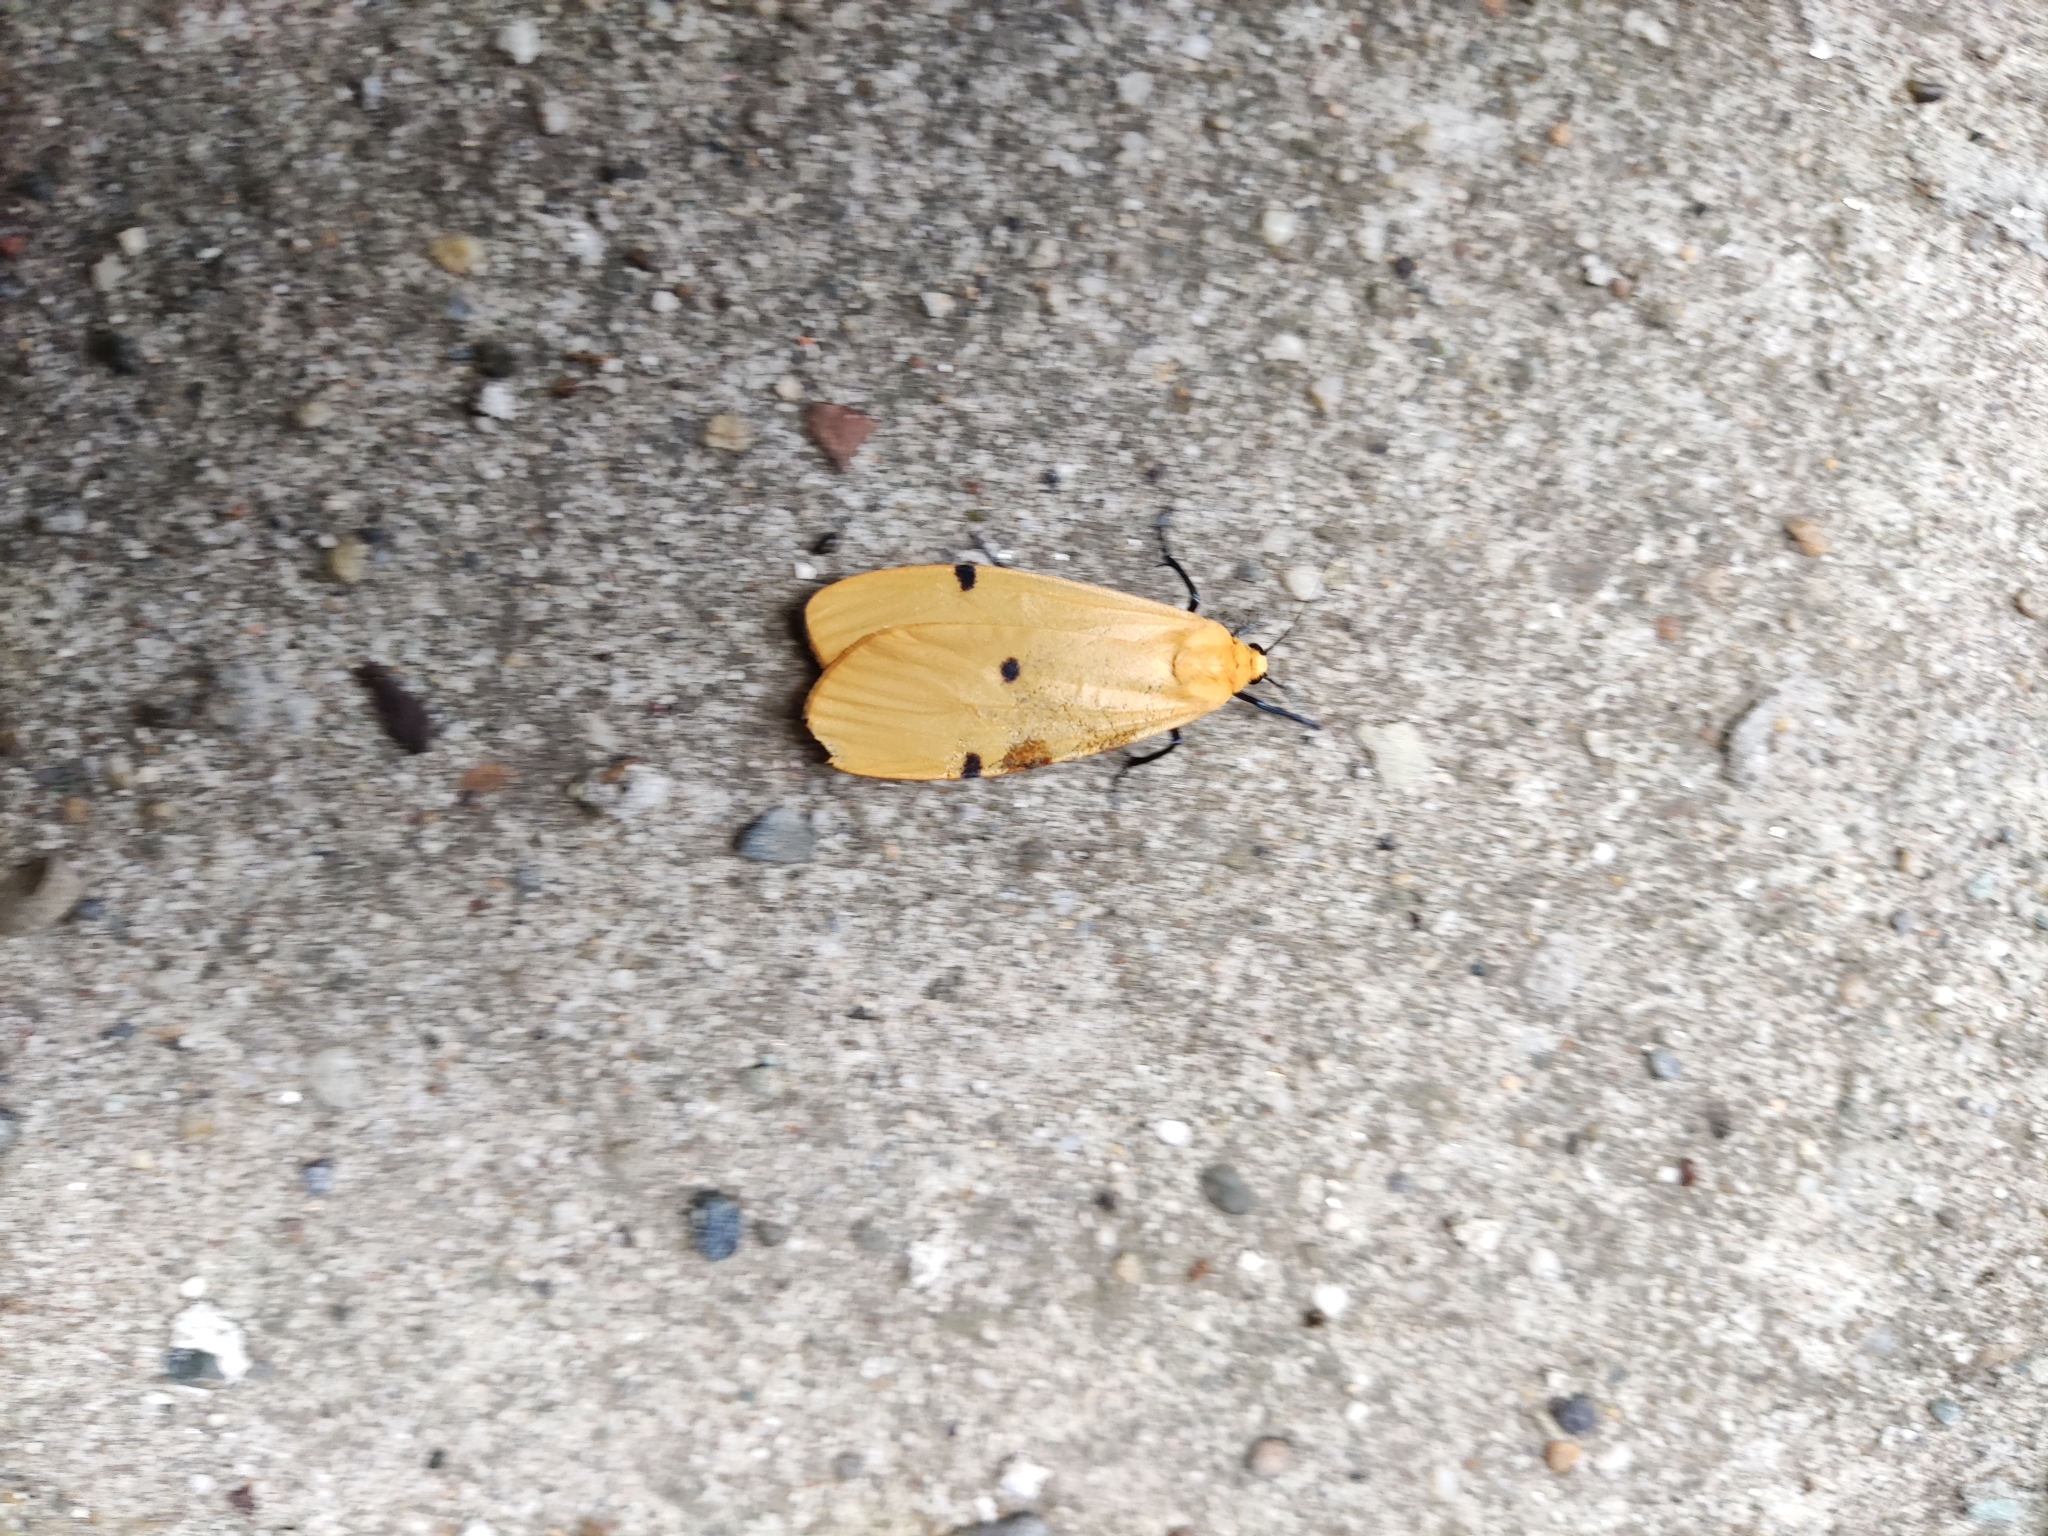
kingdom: Animalia
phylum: Arthropoda
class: Insecta
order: Lepidoptera
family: Erebidae
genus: Lithosia
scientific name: Lithosia quadra
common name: Four-spotted footman
